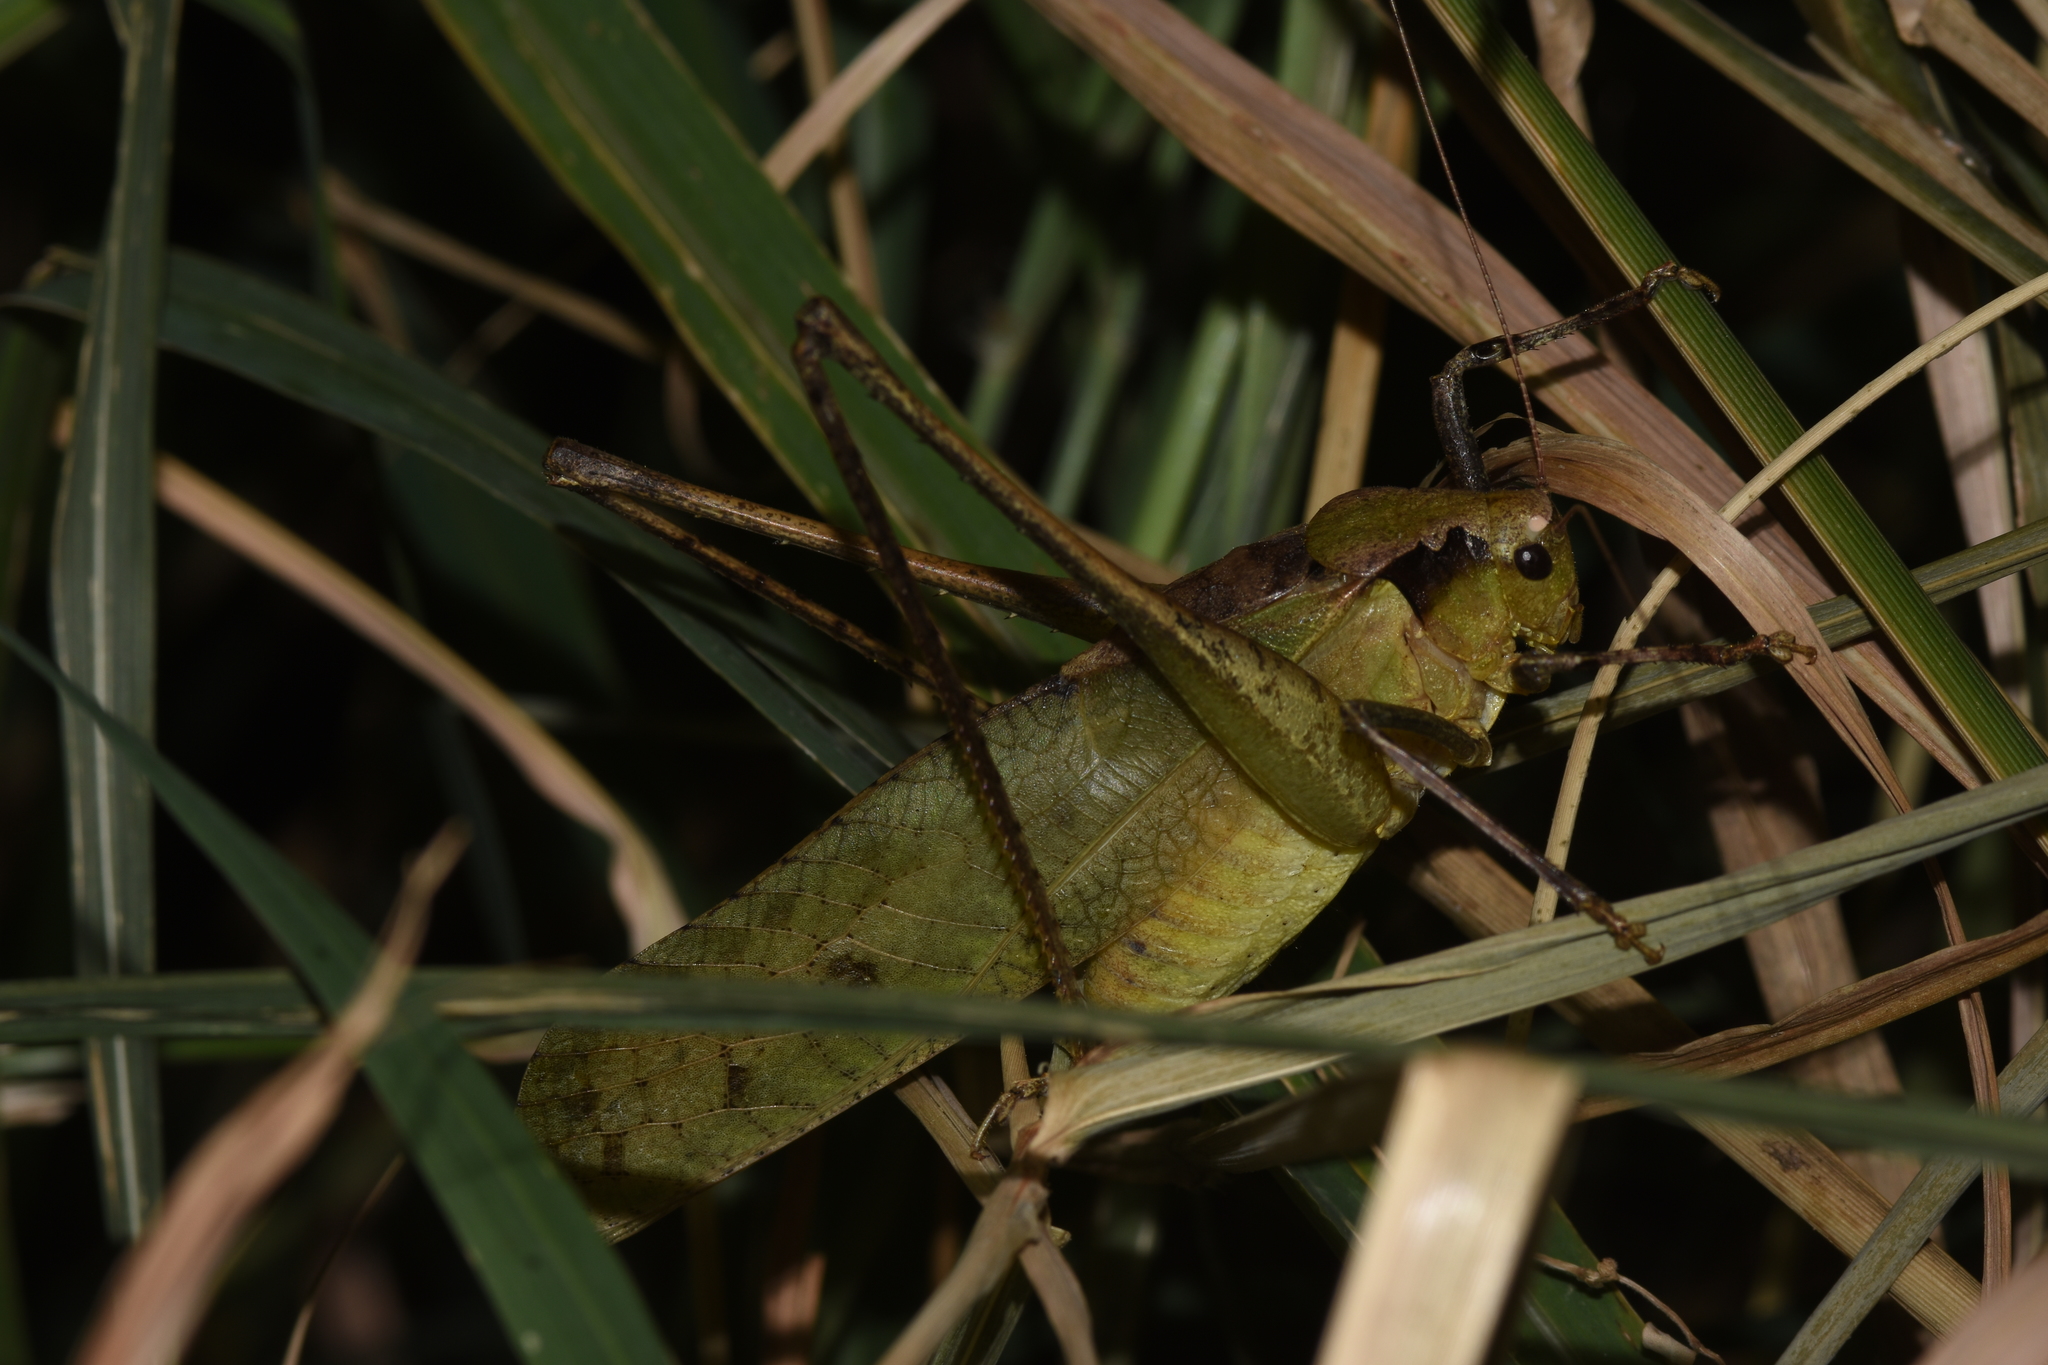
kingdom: Animalia
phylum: Arthropoda
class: Insecta
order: Orthoptera
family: Tettigoniidae
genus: Mecopoda
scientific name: Mecopoda elongata
